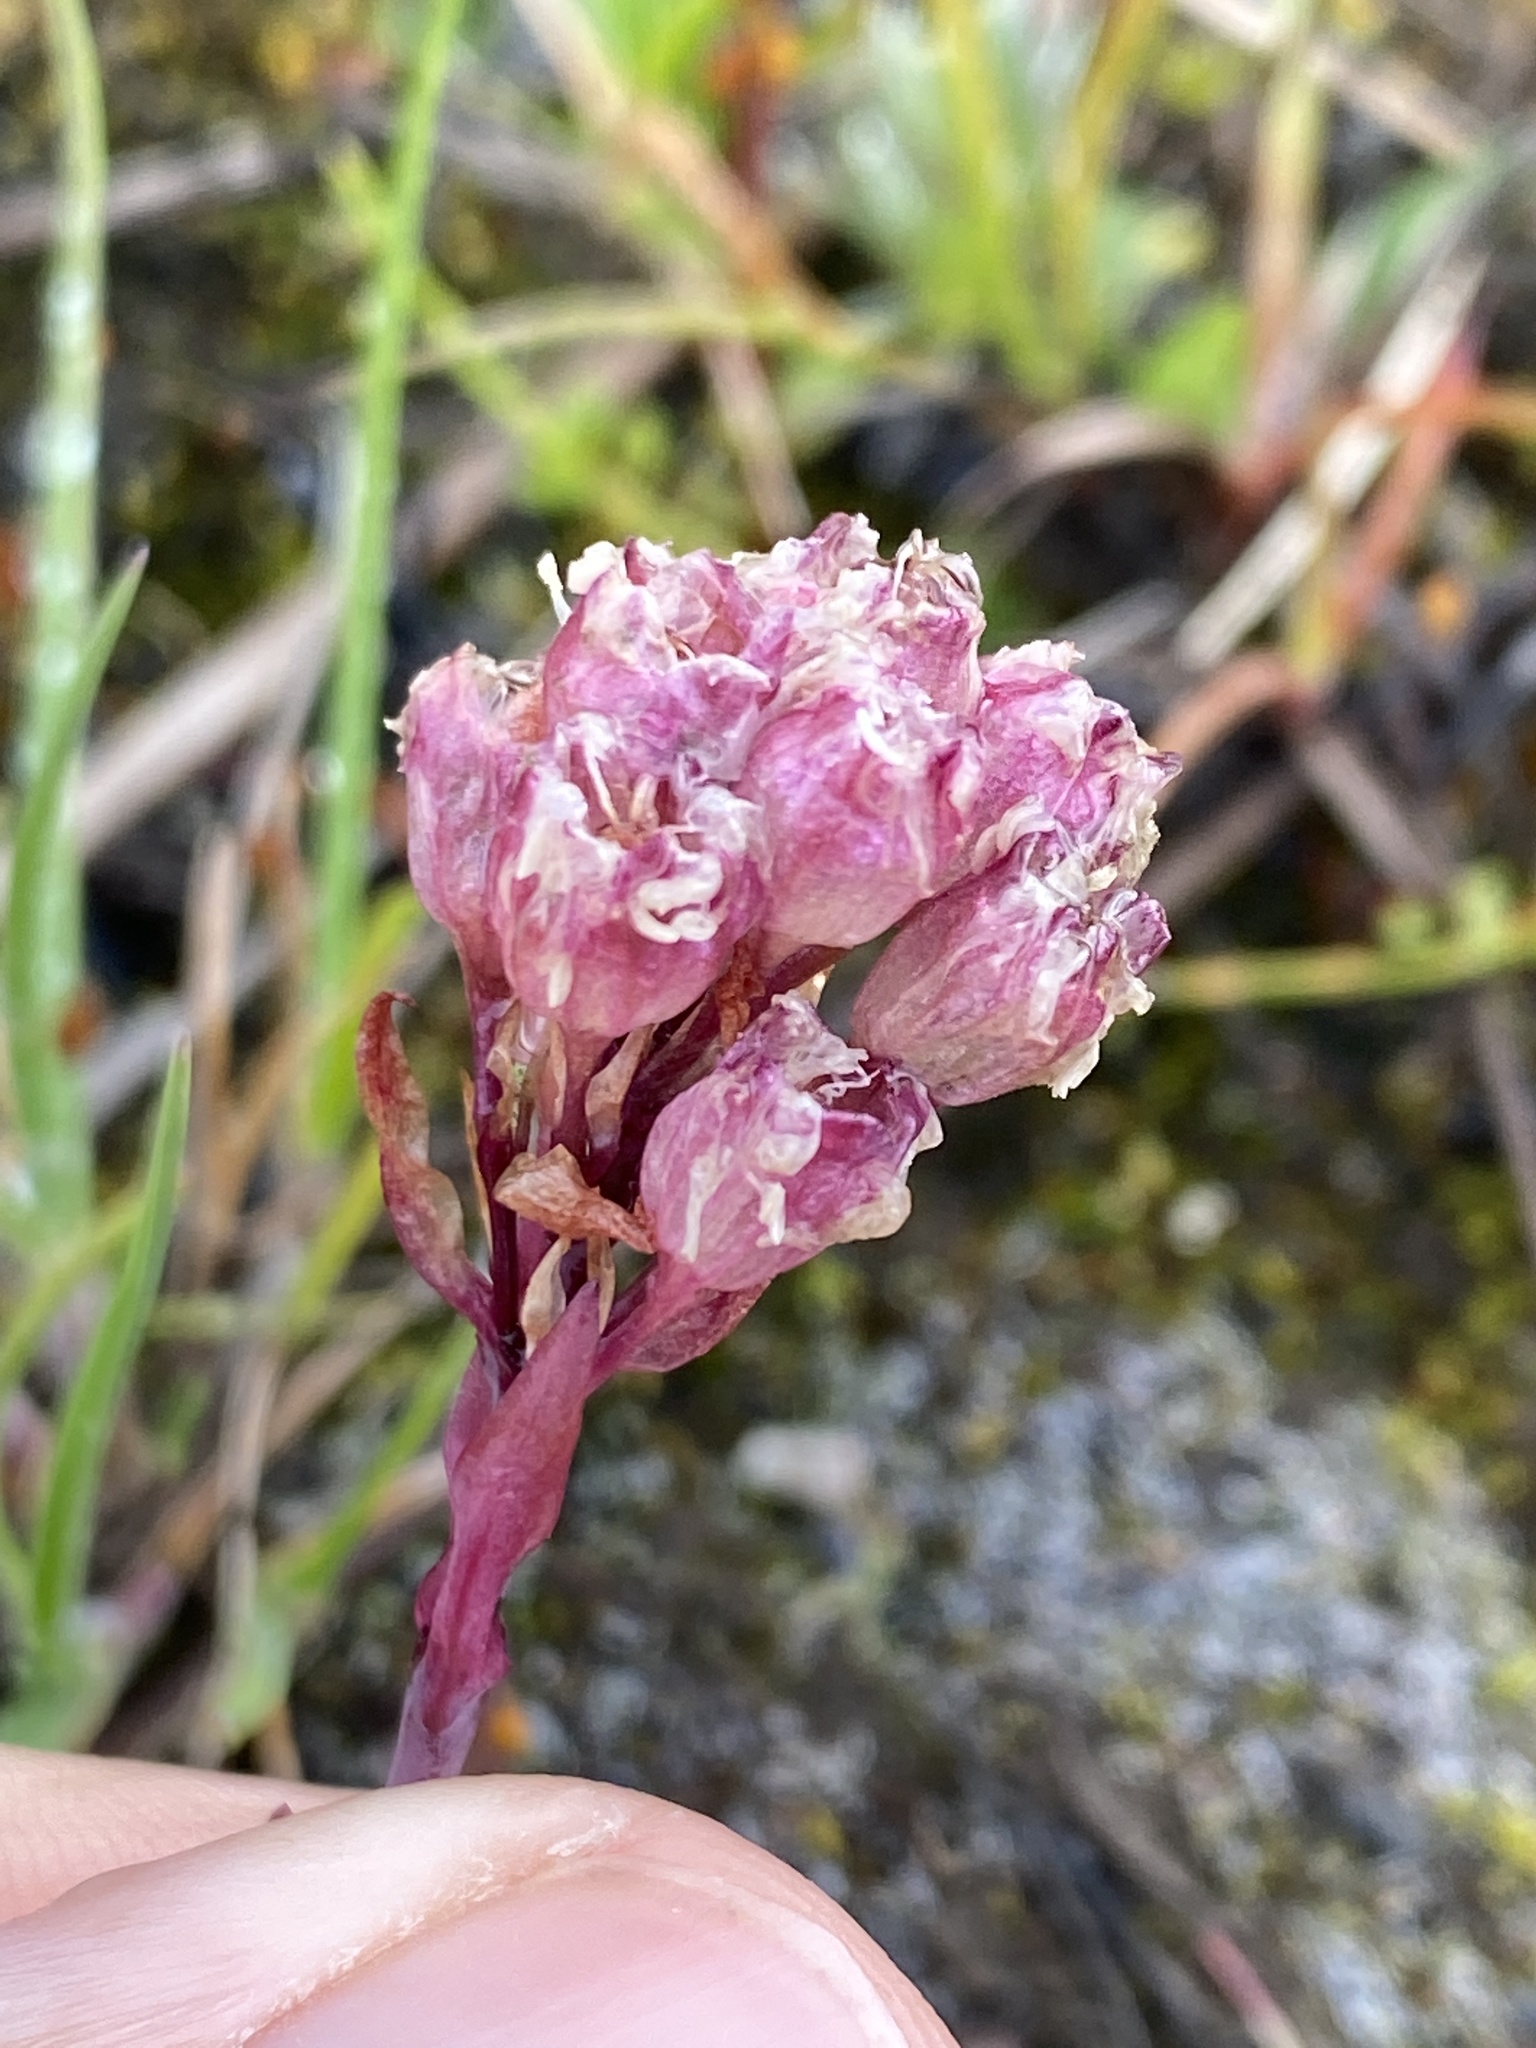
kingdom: Plantae
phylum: Tracheophyta
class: Magnoliopsida
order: Caryophyllales
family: Caryophyllaceae
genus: Viscaria
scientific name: Viscaria alpina
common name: Alpine campion
